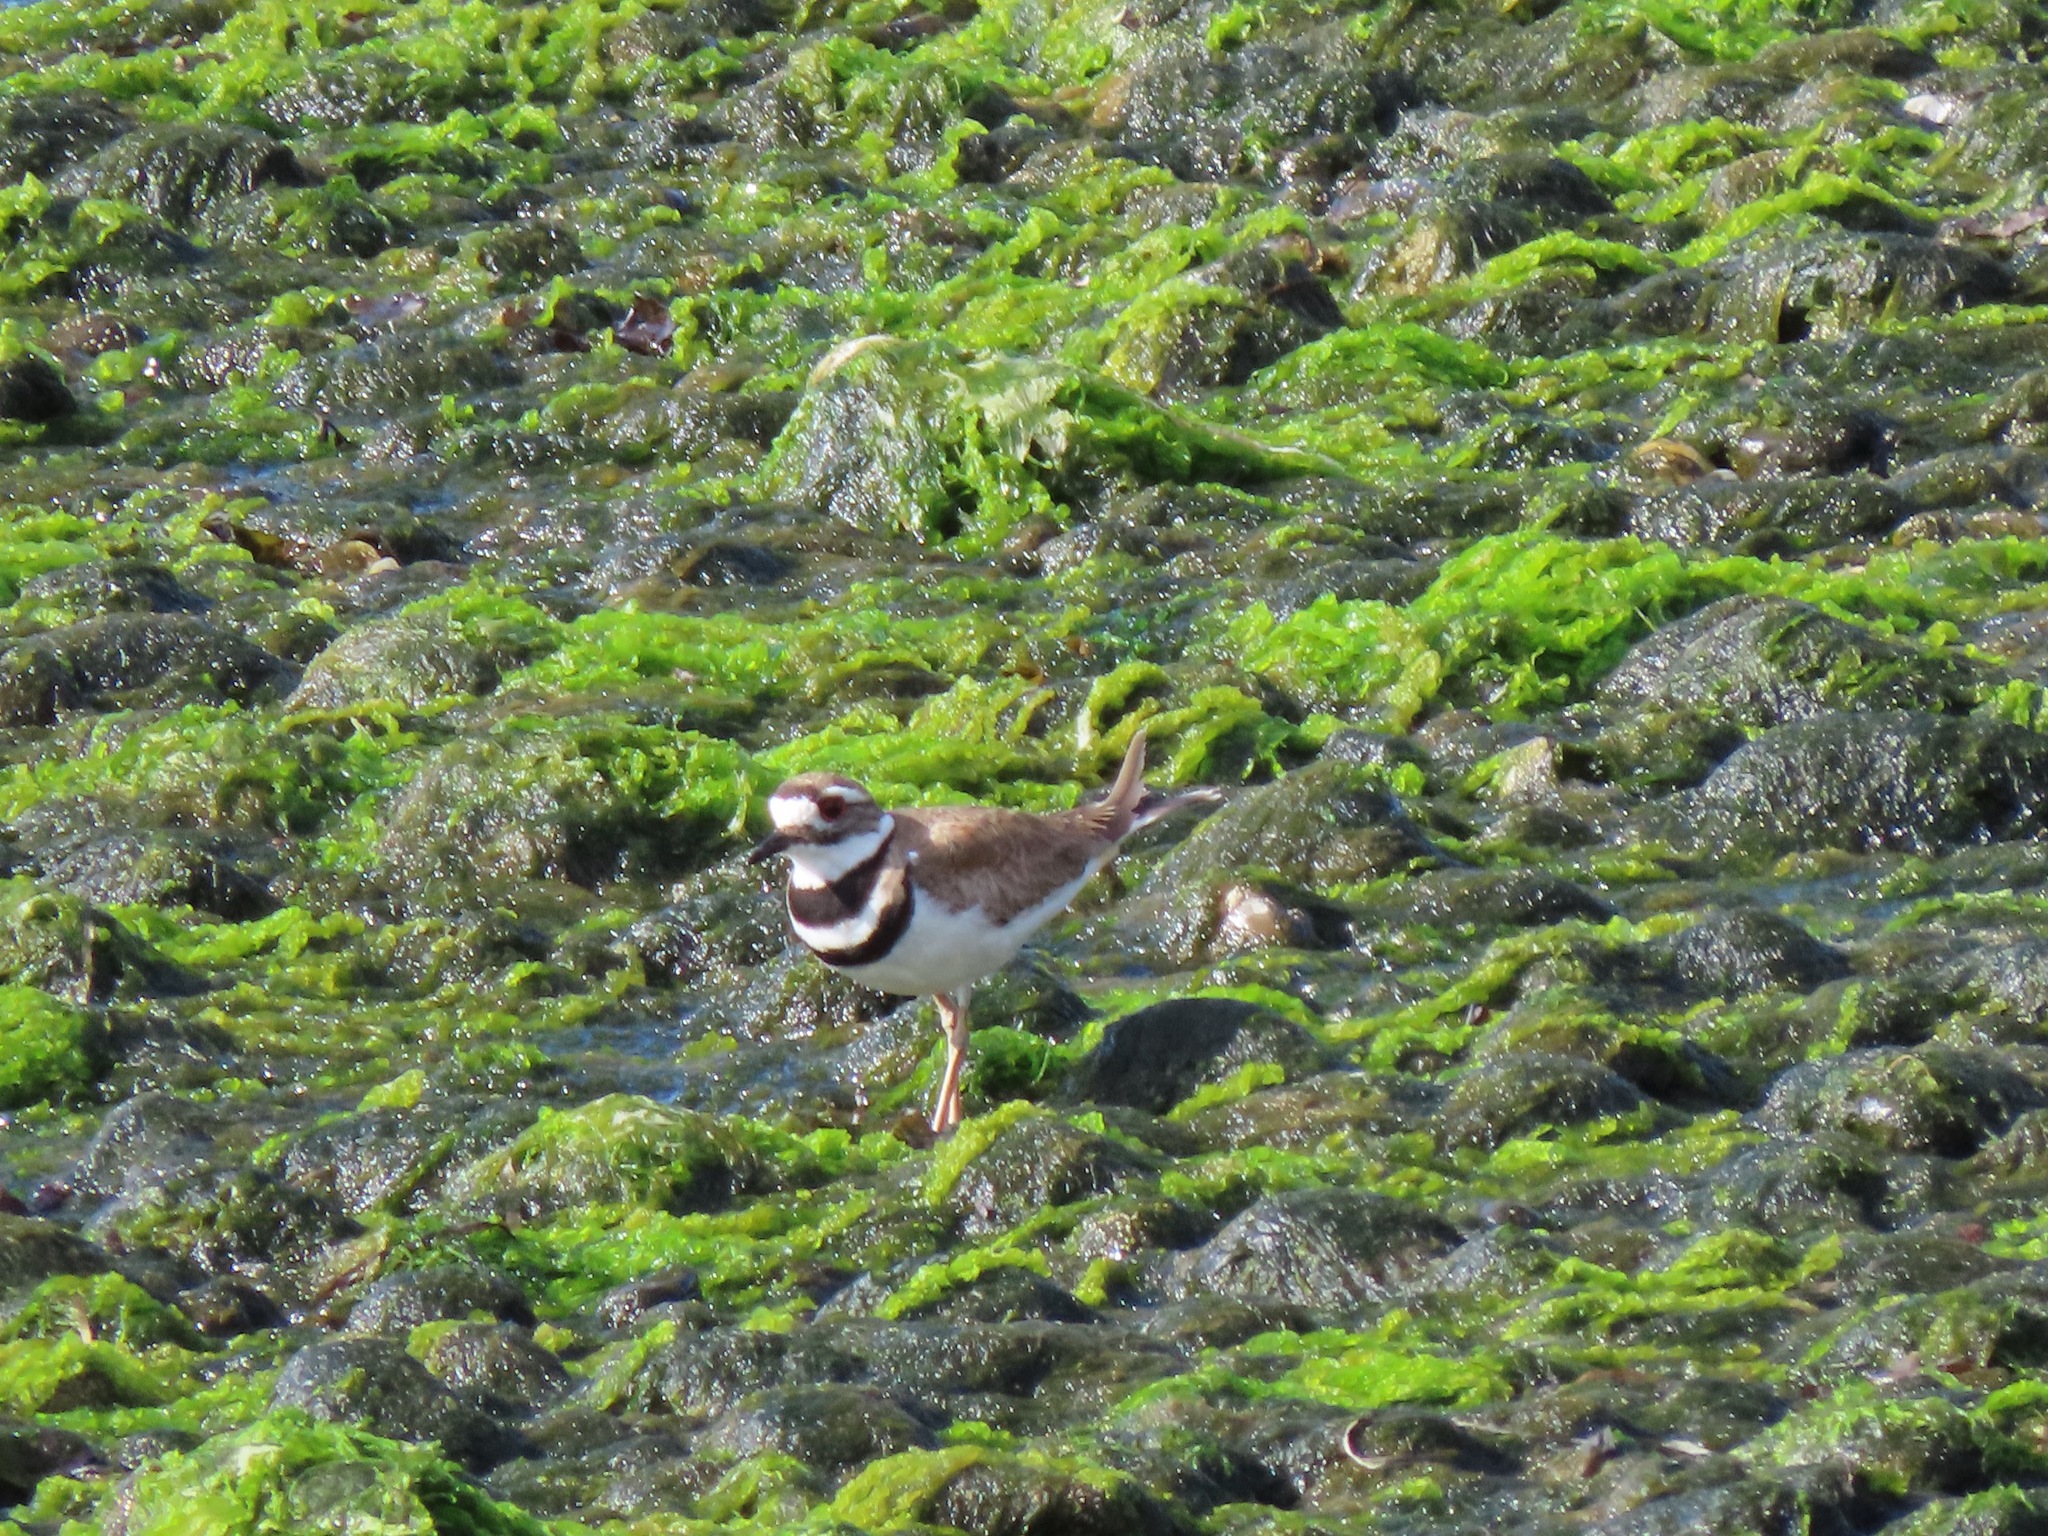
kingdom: Animalia
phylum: Chordata
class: Aves
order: Charadriiformes
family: Charadriidae
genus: Charadrius
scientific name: Charadrius vociferus
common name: Killdeer
